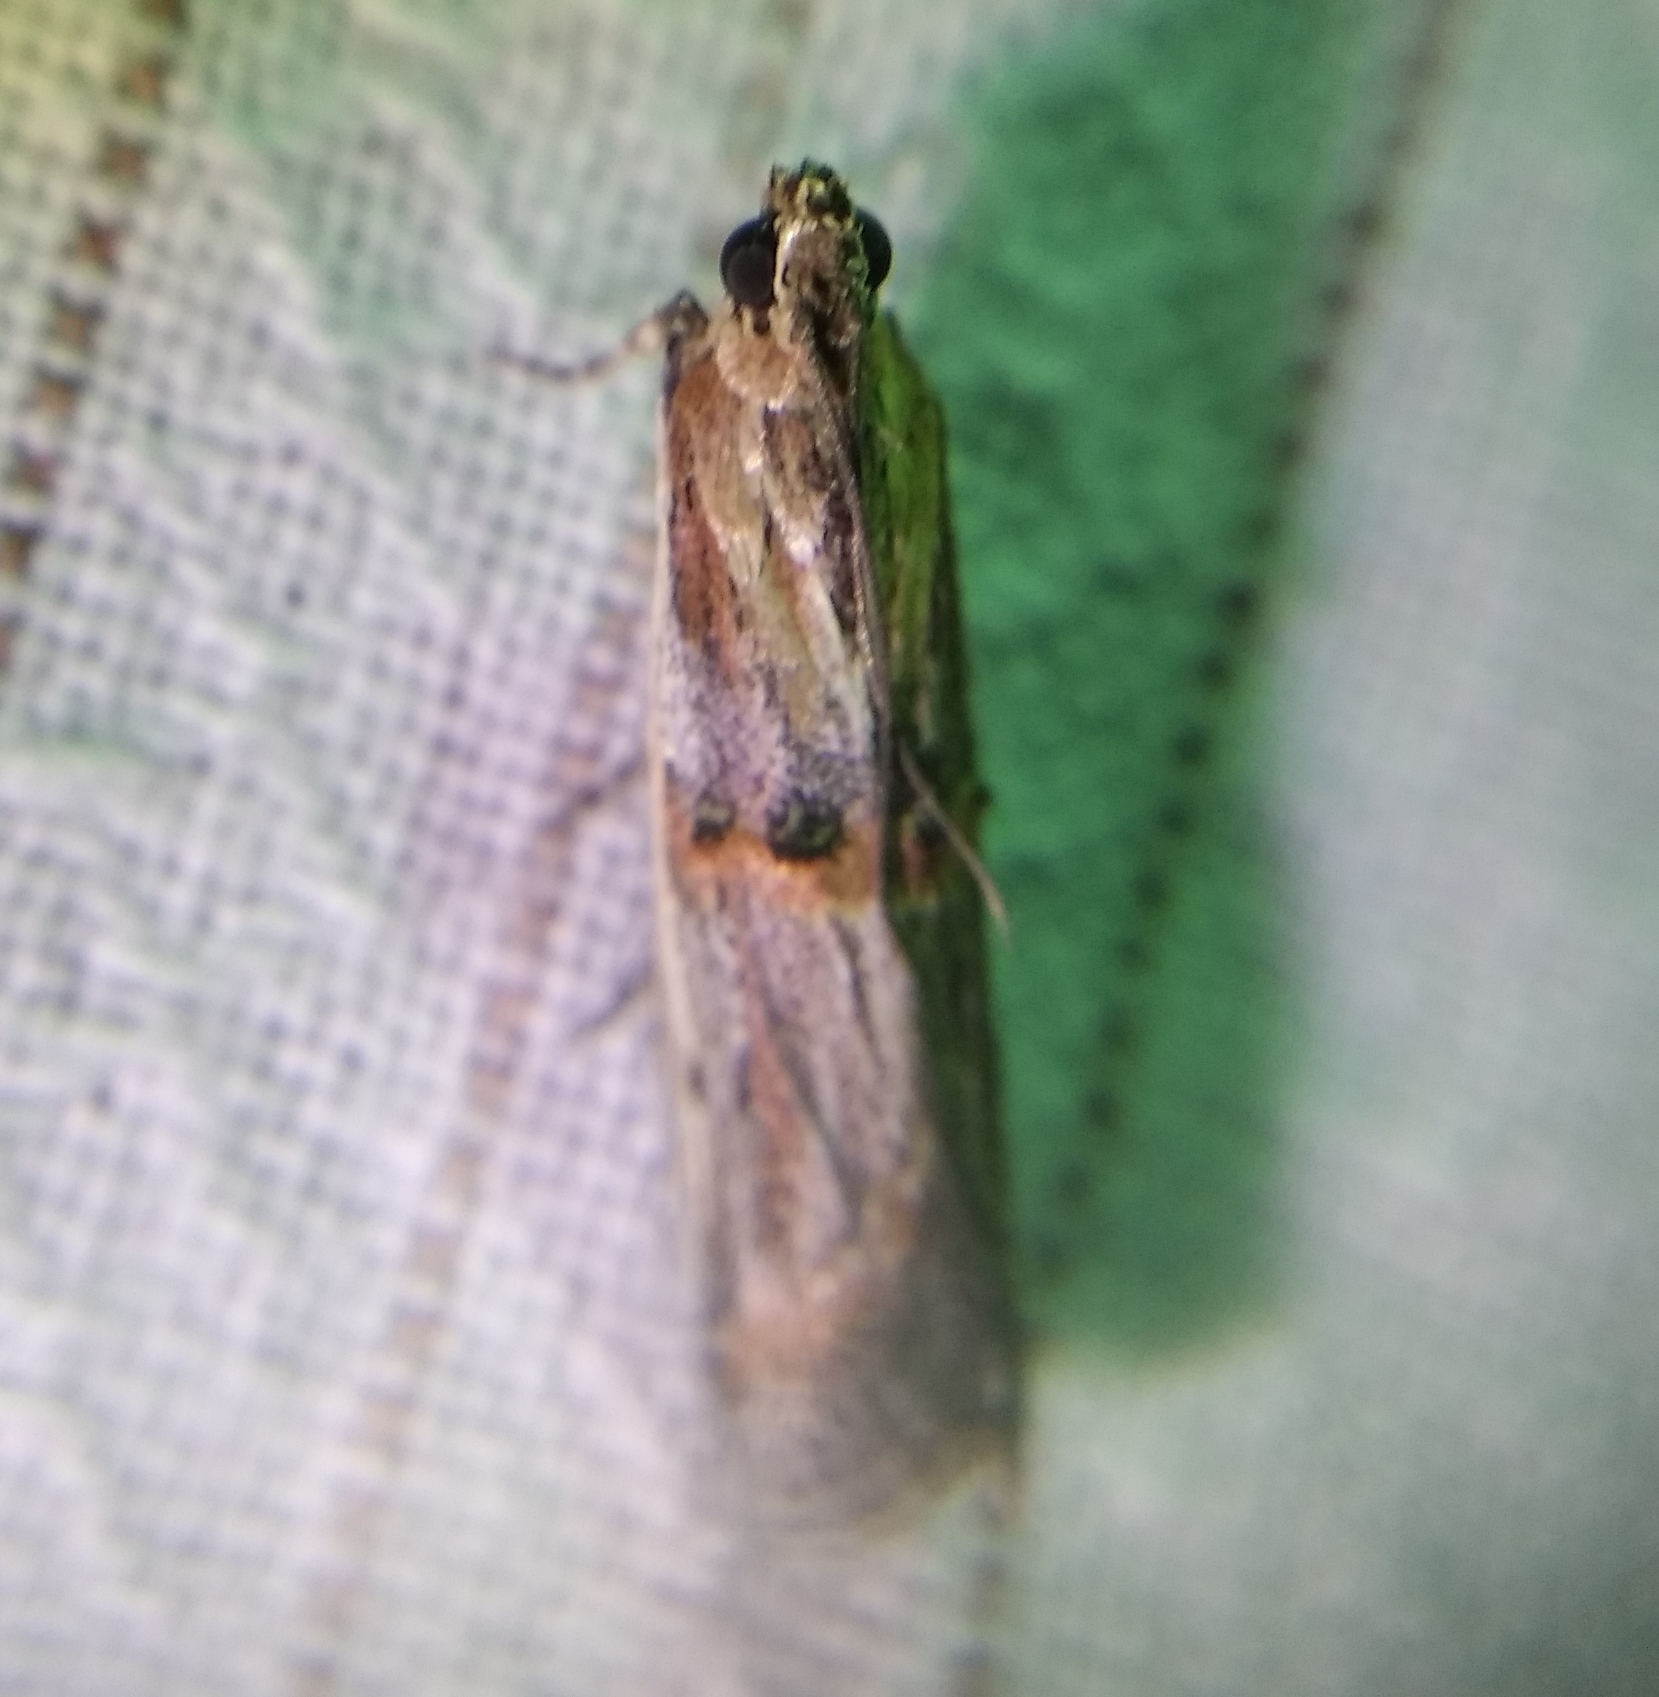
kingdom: Animalia
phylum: Arthropoda
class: Insecta
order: Lepidoptera
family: Pyralidae
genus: Psorosa
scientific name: Psorosa dahliella
